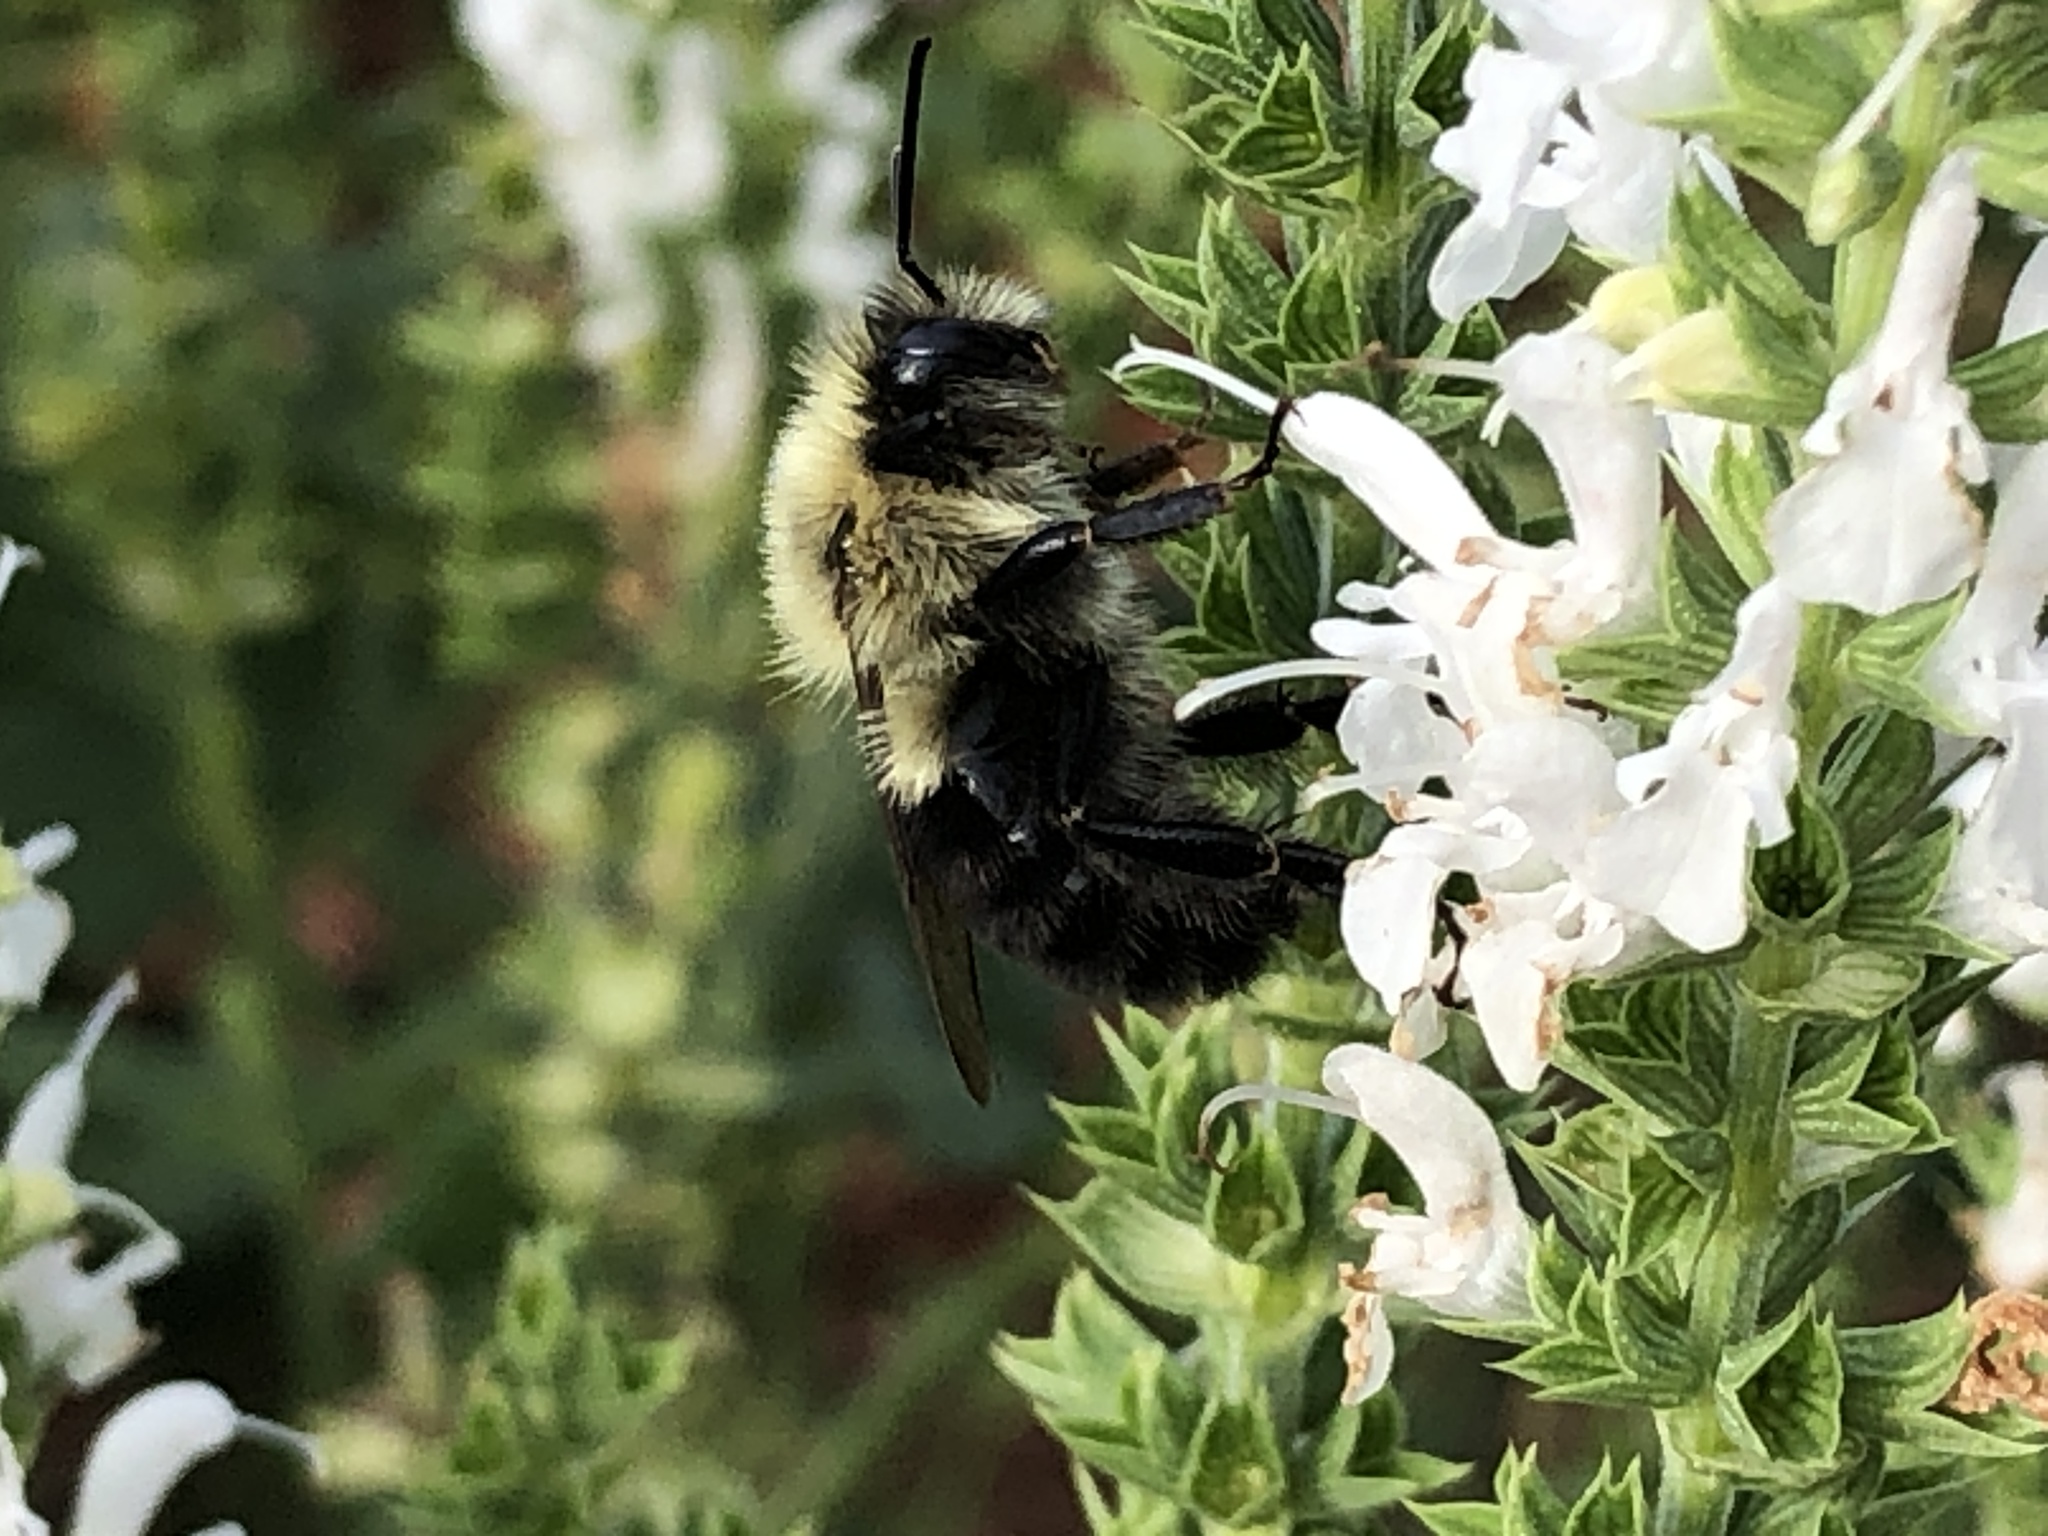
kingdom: Animalia
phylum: Arthropoda
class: Insecta
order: Hymenoptera
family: Apidae
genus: Bombus
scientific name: Bombus impatiens
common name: Common eastern bumble bee
